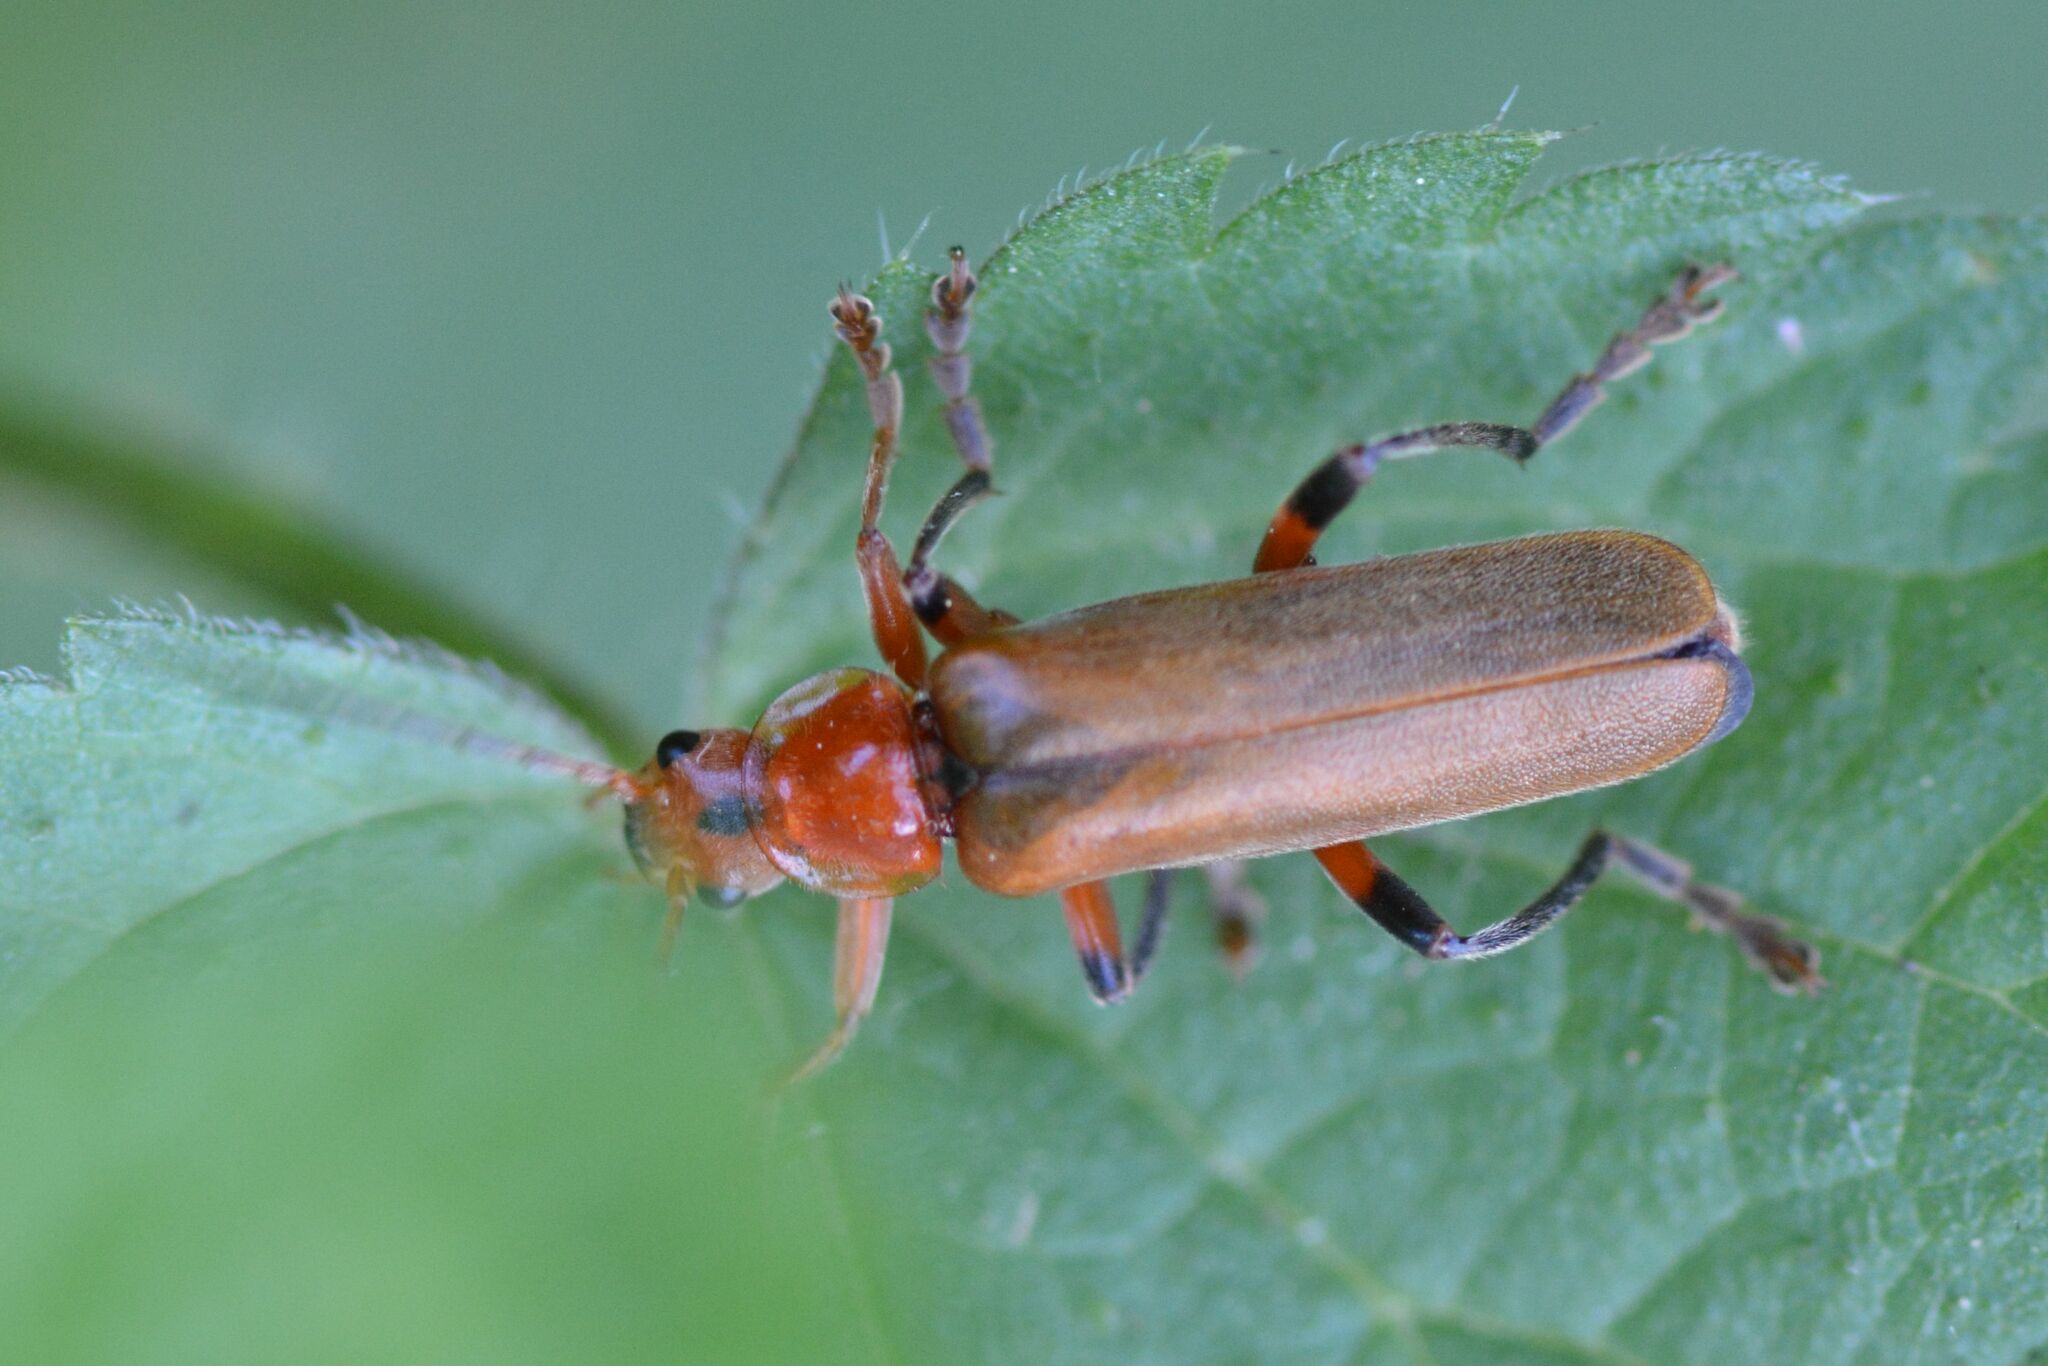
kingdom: Animalia
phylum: Arthropoda
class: Insecta
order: Coleoptera
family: Cantharidae
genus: Cantharis
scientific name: Cantharis livida
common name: Livid soldier beetle
